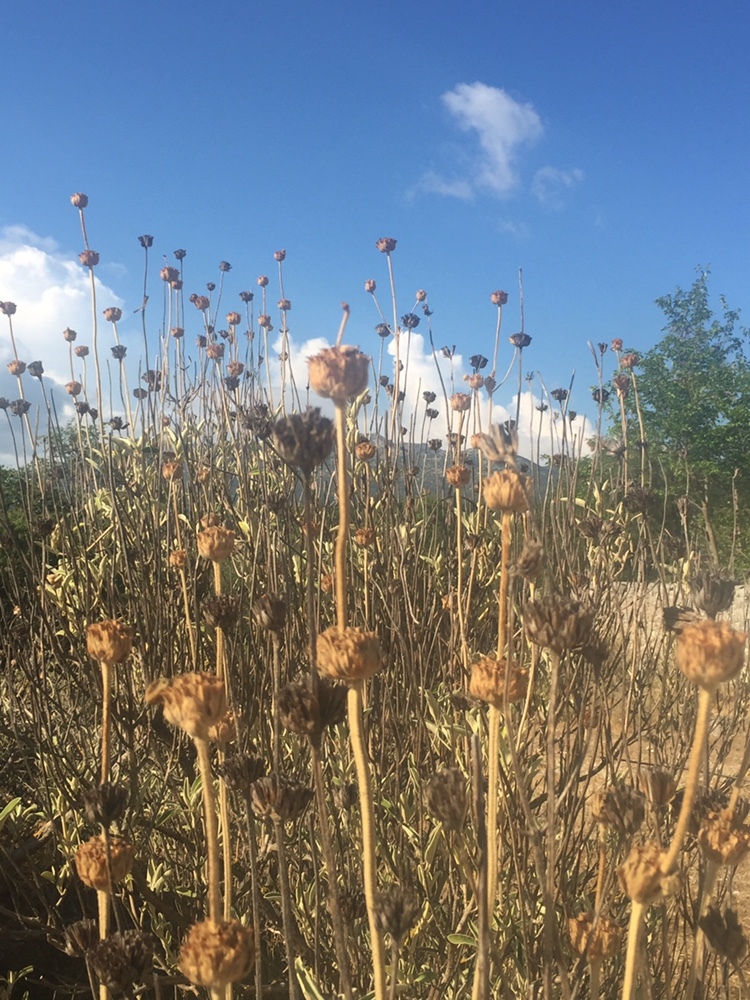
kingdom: Plantae
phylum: Tracheophyta
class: Magnoliopsida
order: Lamiales
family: Lamiaceae
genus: Phlomis
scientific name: Phlomis fruticosa
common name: Jerusalem sage
